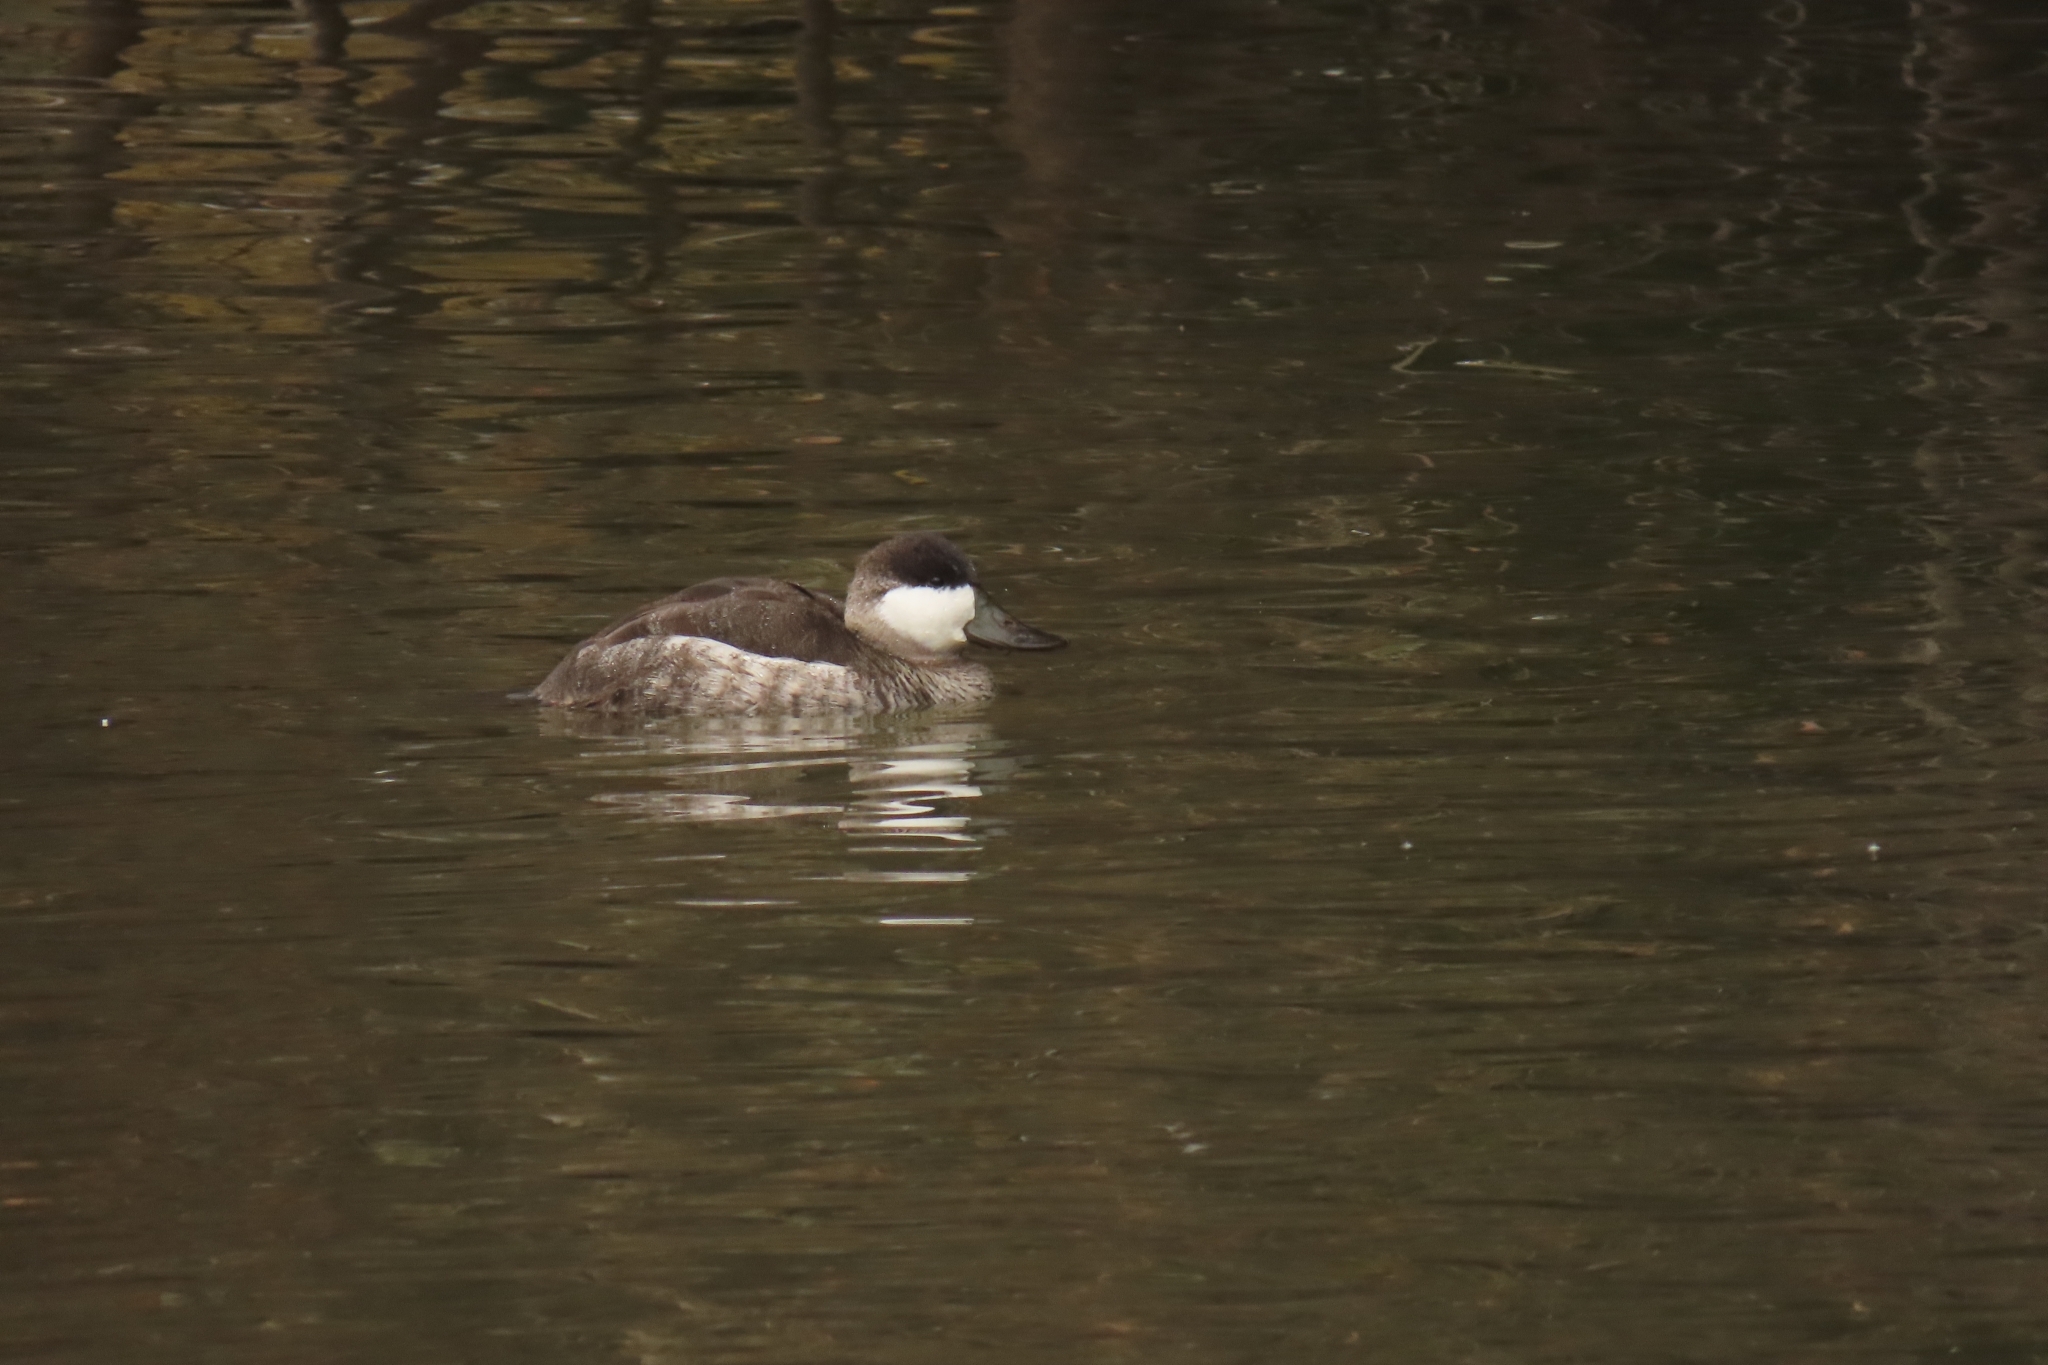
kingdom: Animalia
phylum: Chordata
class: Aves
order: Anseriformes
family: Anatidae
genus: Oxyura
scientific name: Oxyura jamaicensis
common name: Ruddy duck
